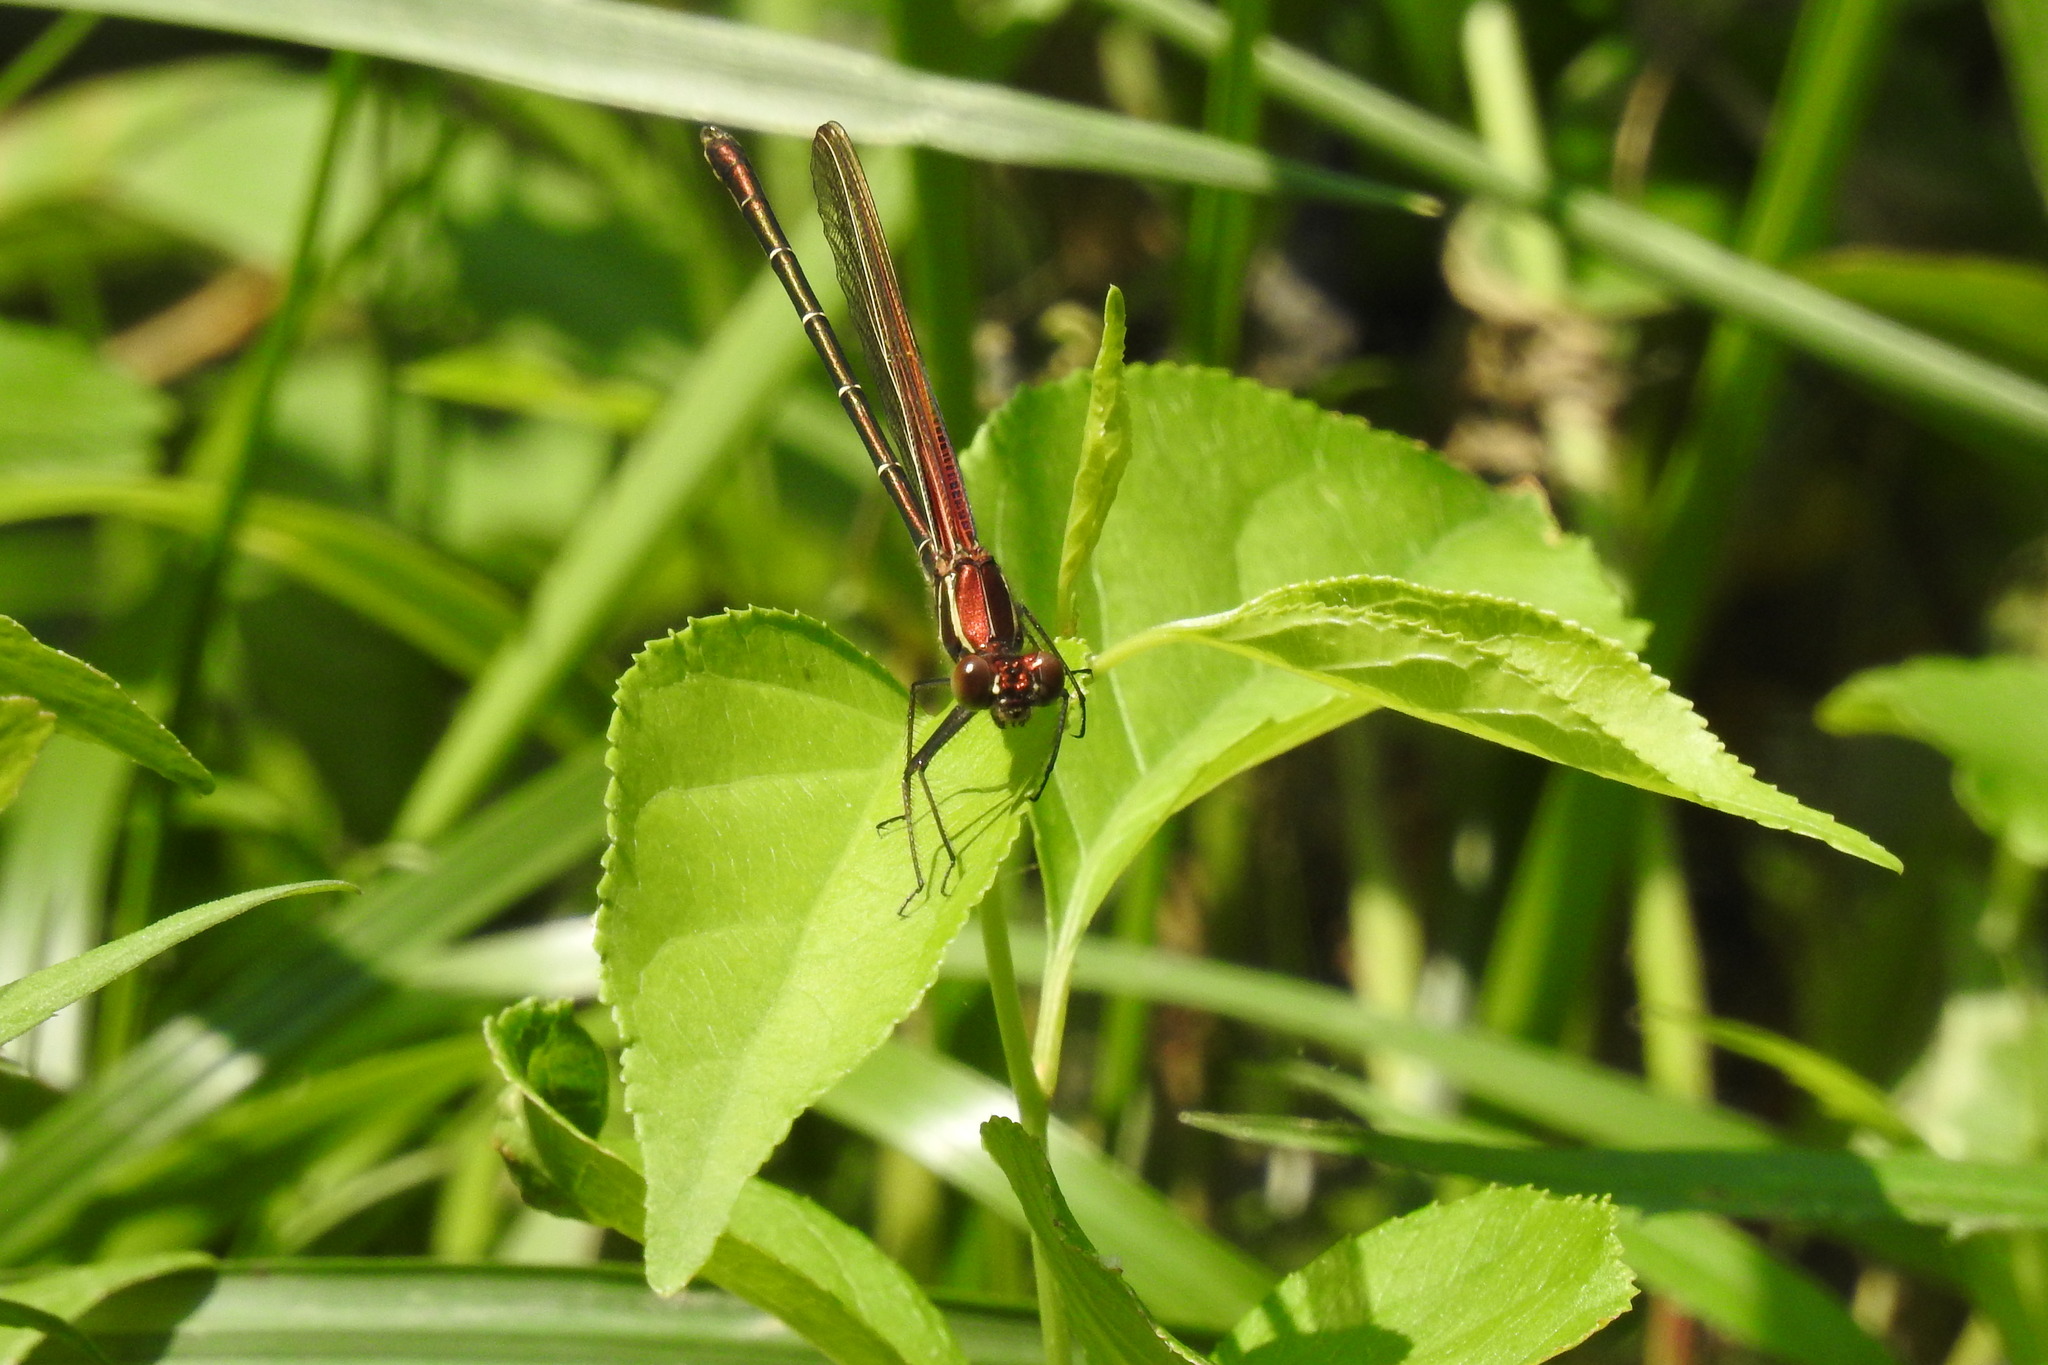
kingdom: Animalia
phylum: Arthropoda
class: Insecta
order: Odonata
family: Calopterygidae
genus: Hetaerina
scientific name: Hetaerina americana
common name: American rubyspot
